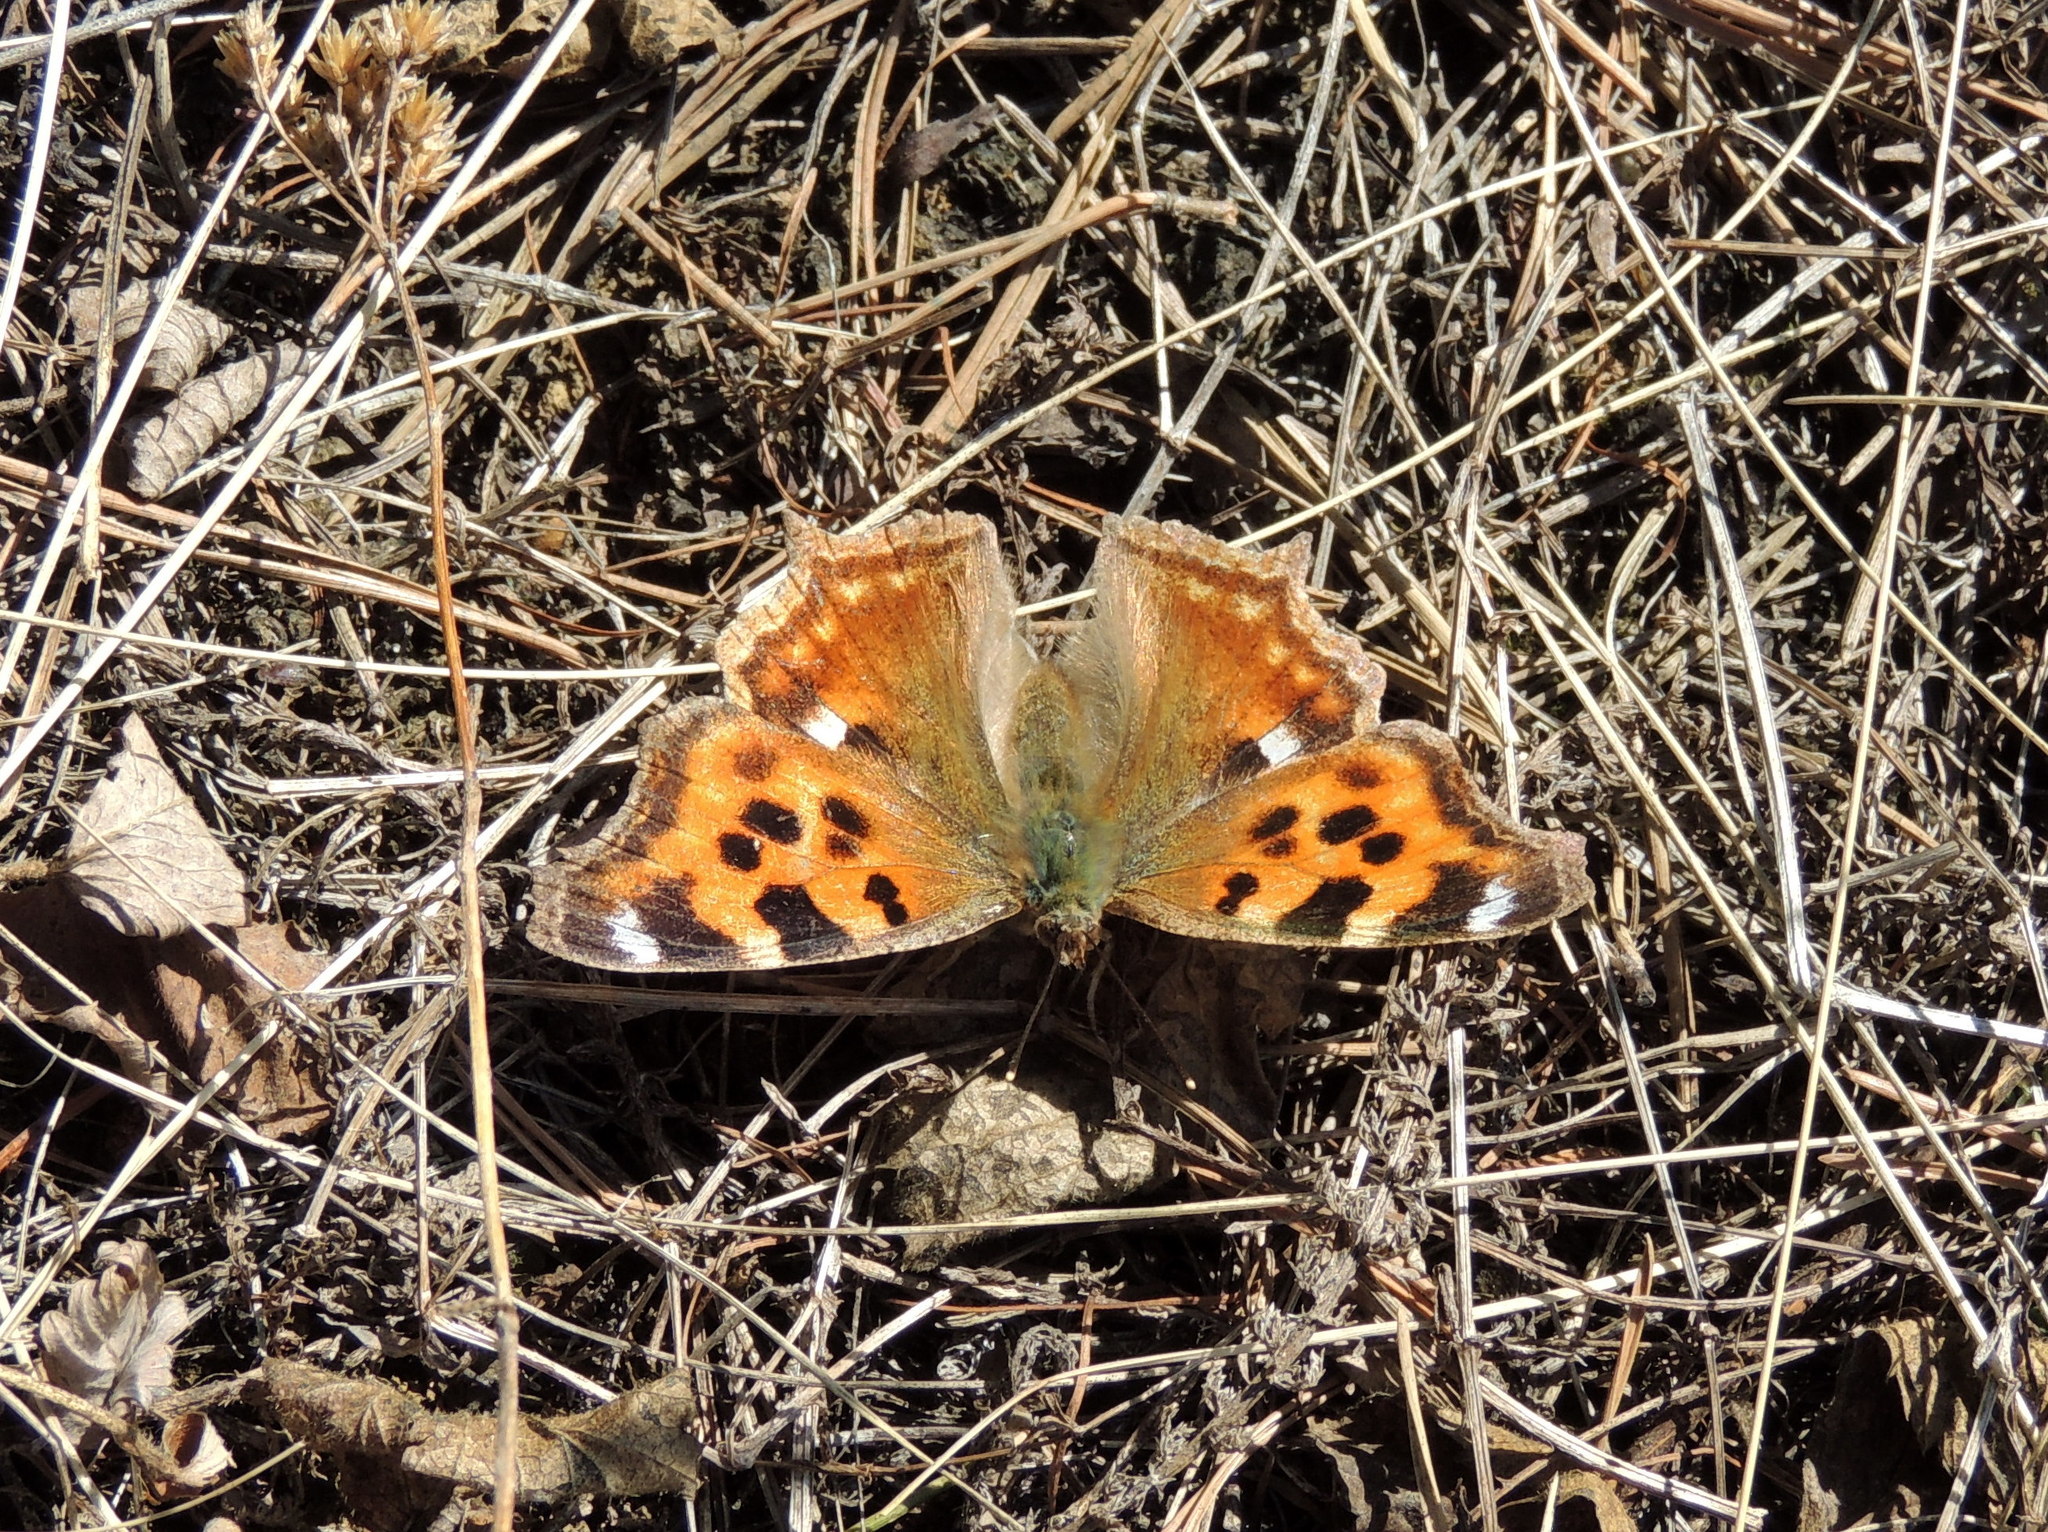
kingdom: Animalia
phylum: Arthropoda
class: Insecta
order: Lepidoptera
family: Nymphalidae
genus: Polygonia
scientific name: Polygonia vaualbum
